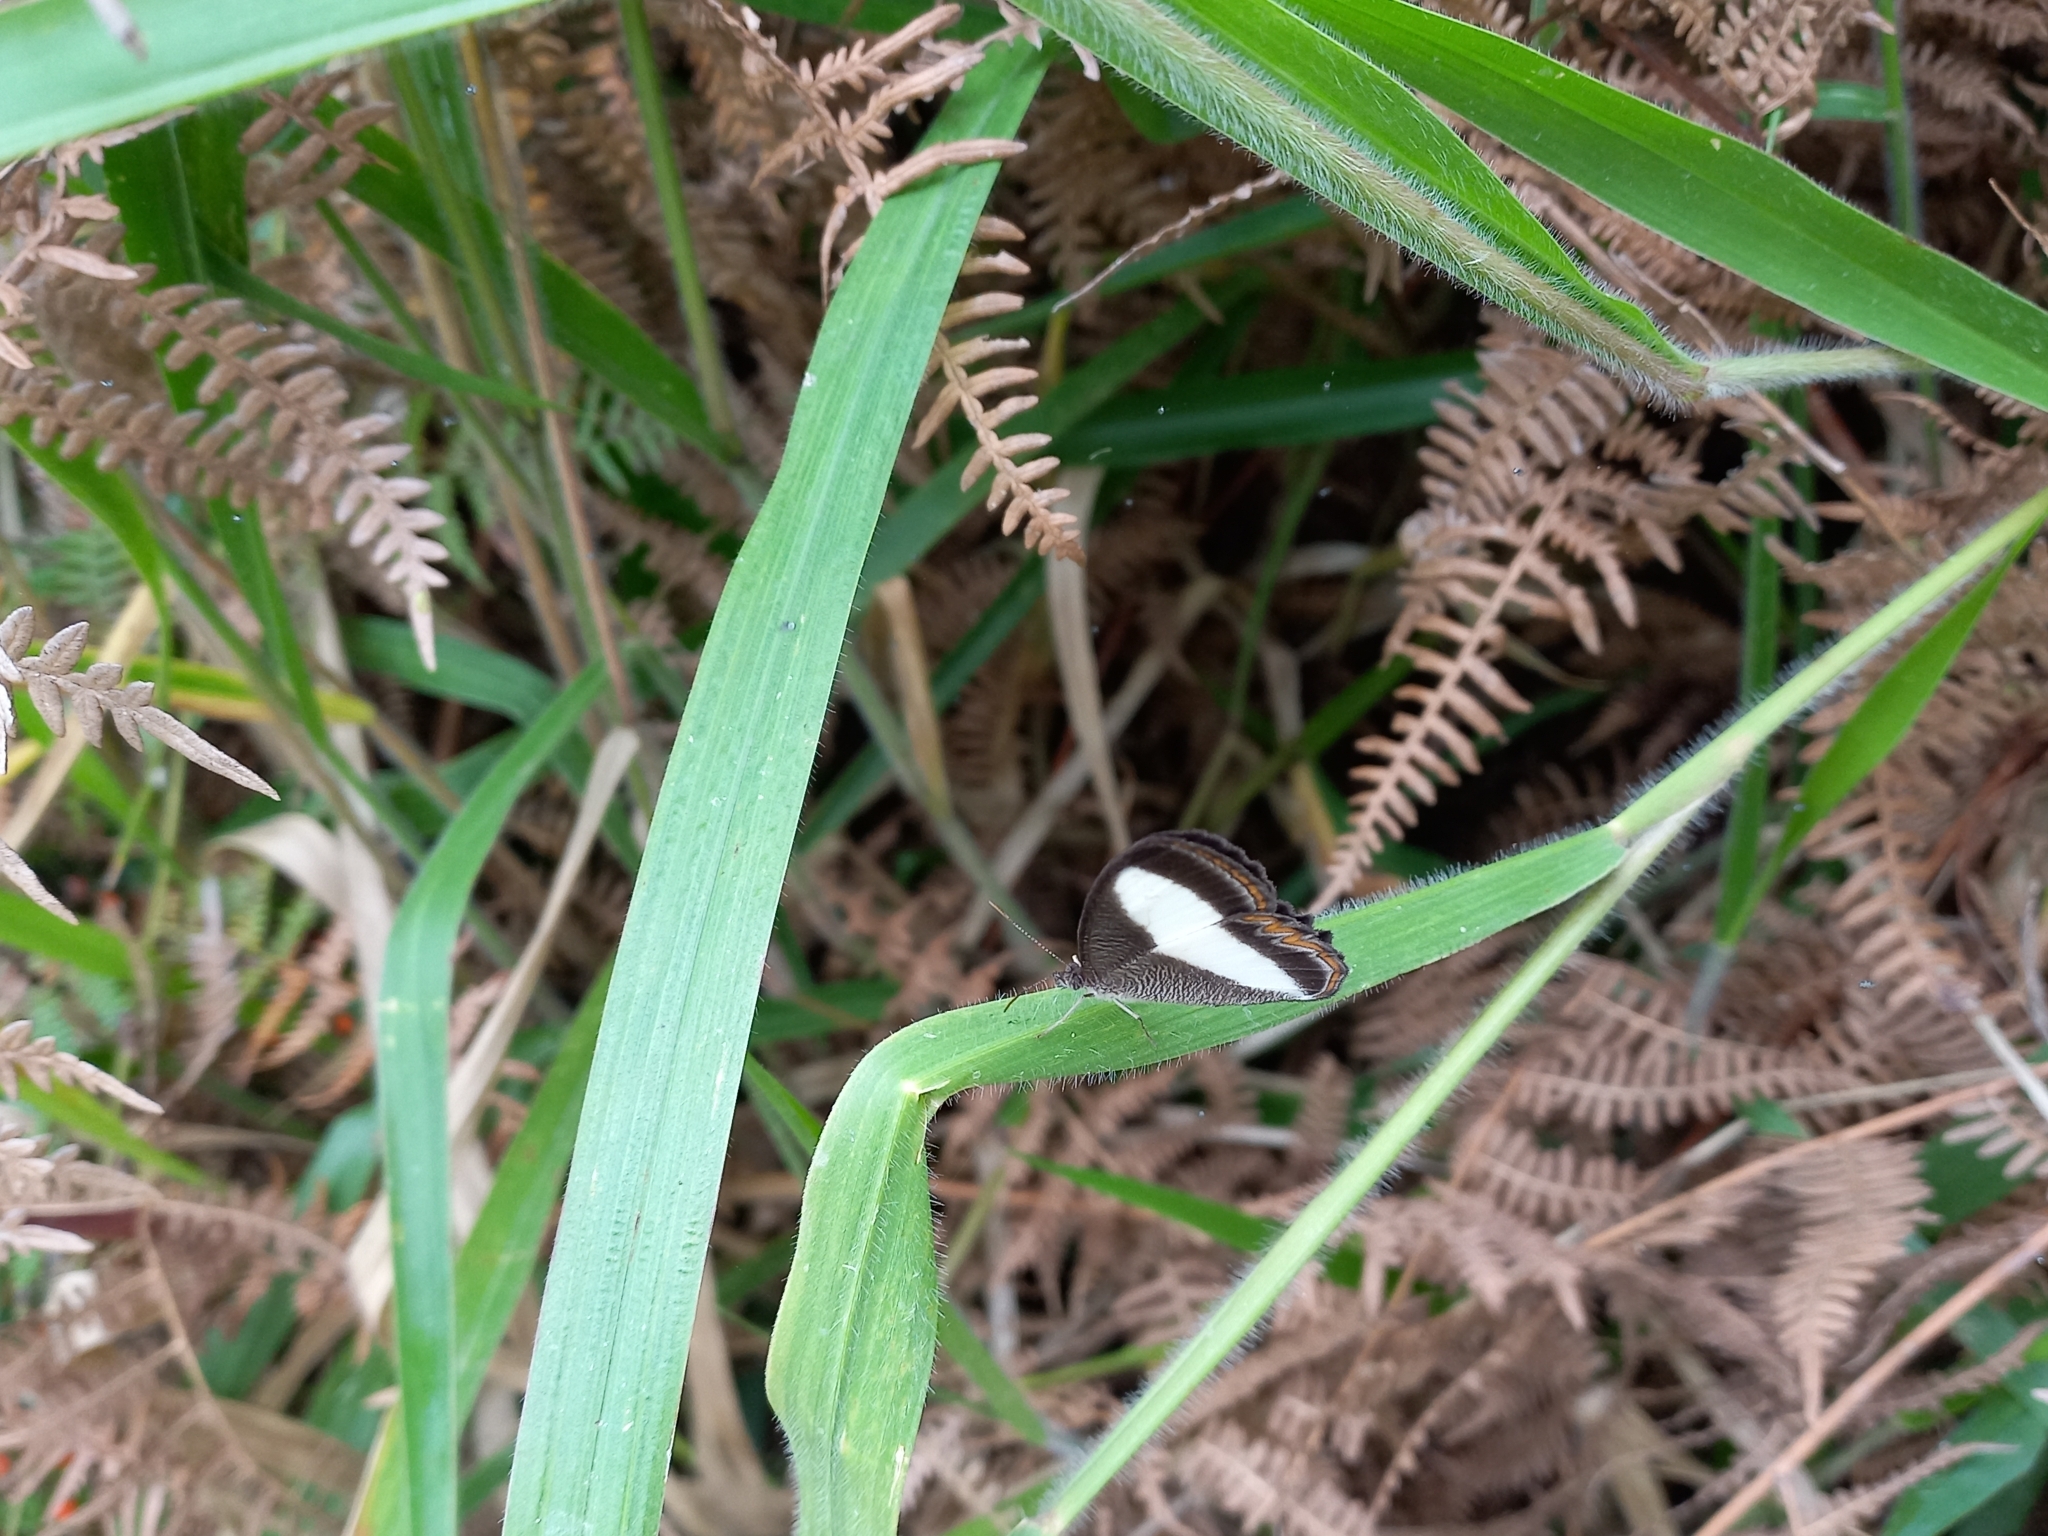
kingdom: Animalia
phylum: Arthropoda
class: Insecta
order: Lepidoptera
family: Nymphalidae
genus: Oressinoma
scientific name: Oressinoma typhla
